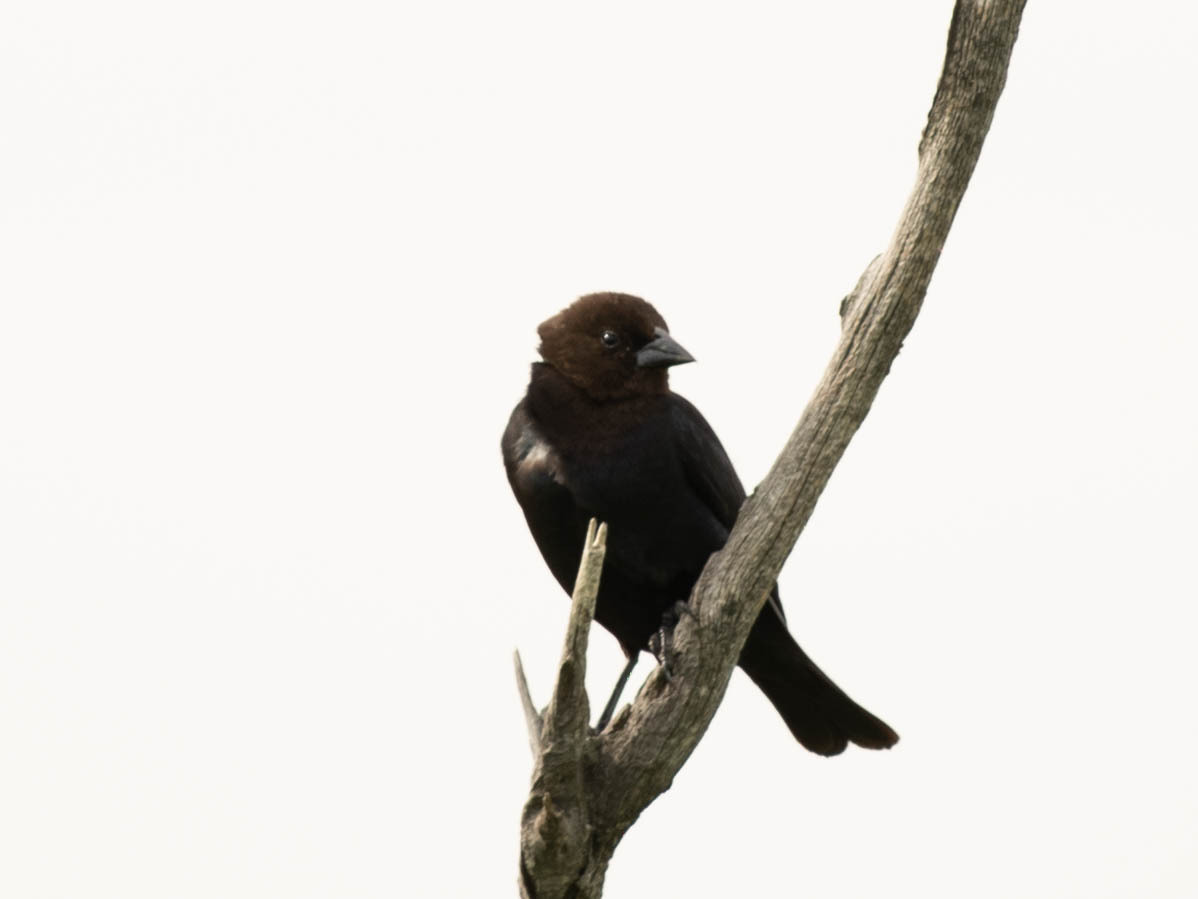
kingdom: Animalia
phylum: Chordata
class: Aves
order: Passeriformes
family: Icteridae
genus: Molothrus
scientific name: Molothrus ater
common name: Brown-headed cowbird
